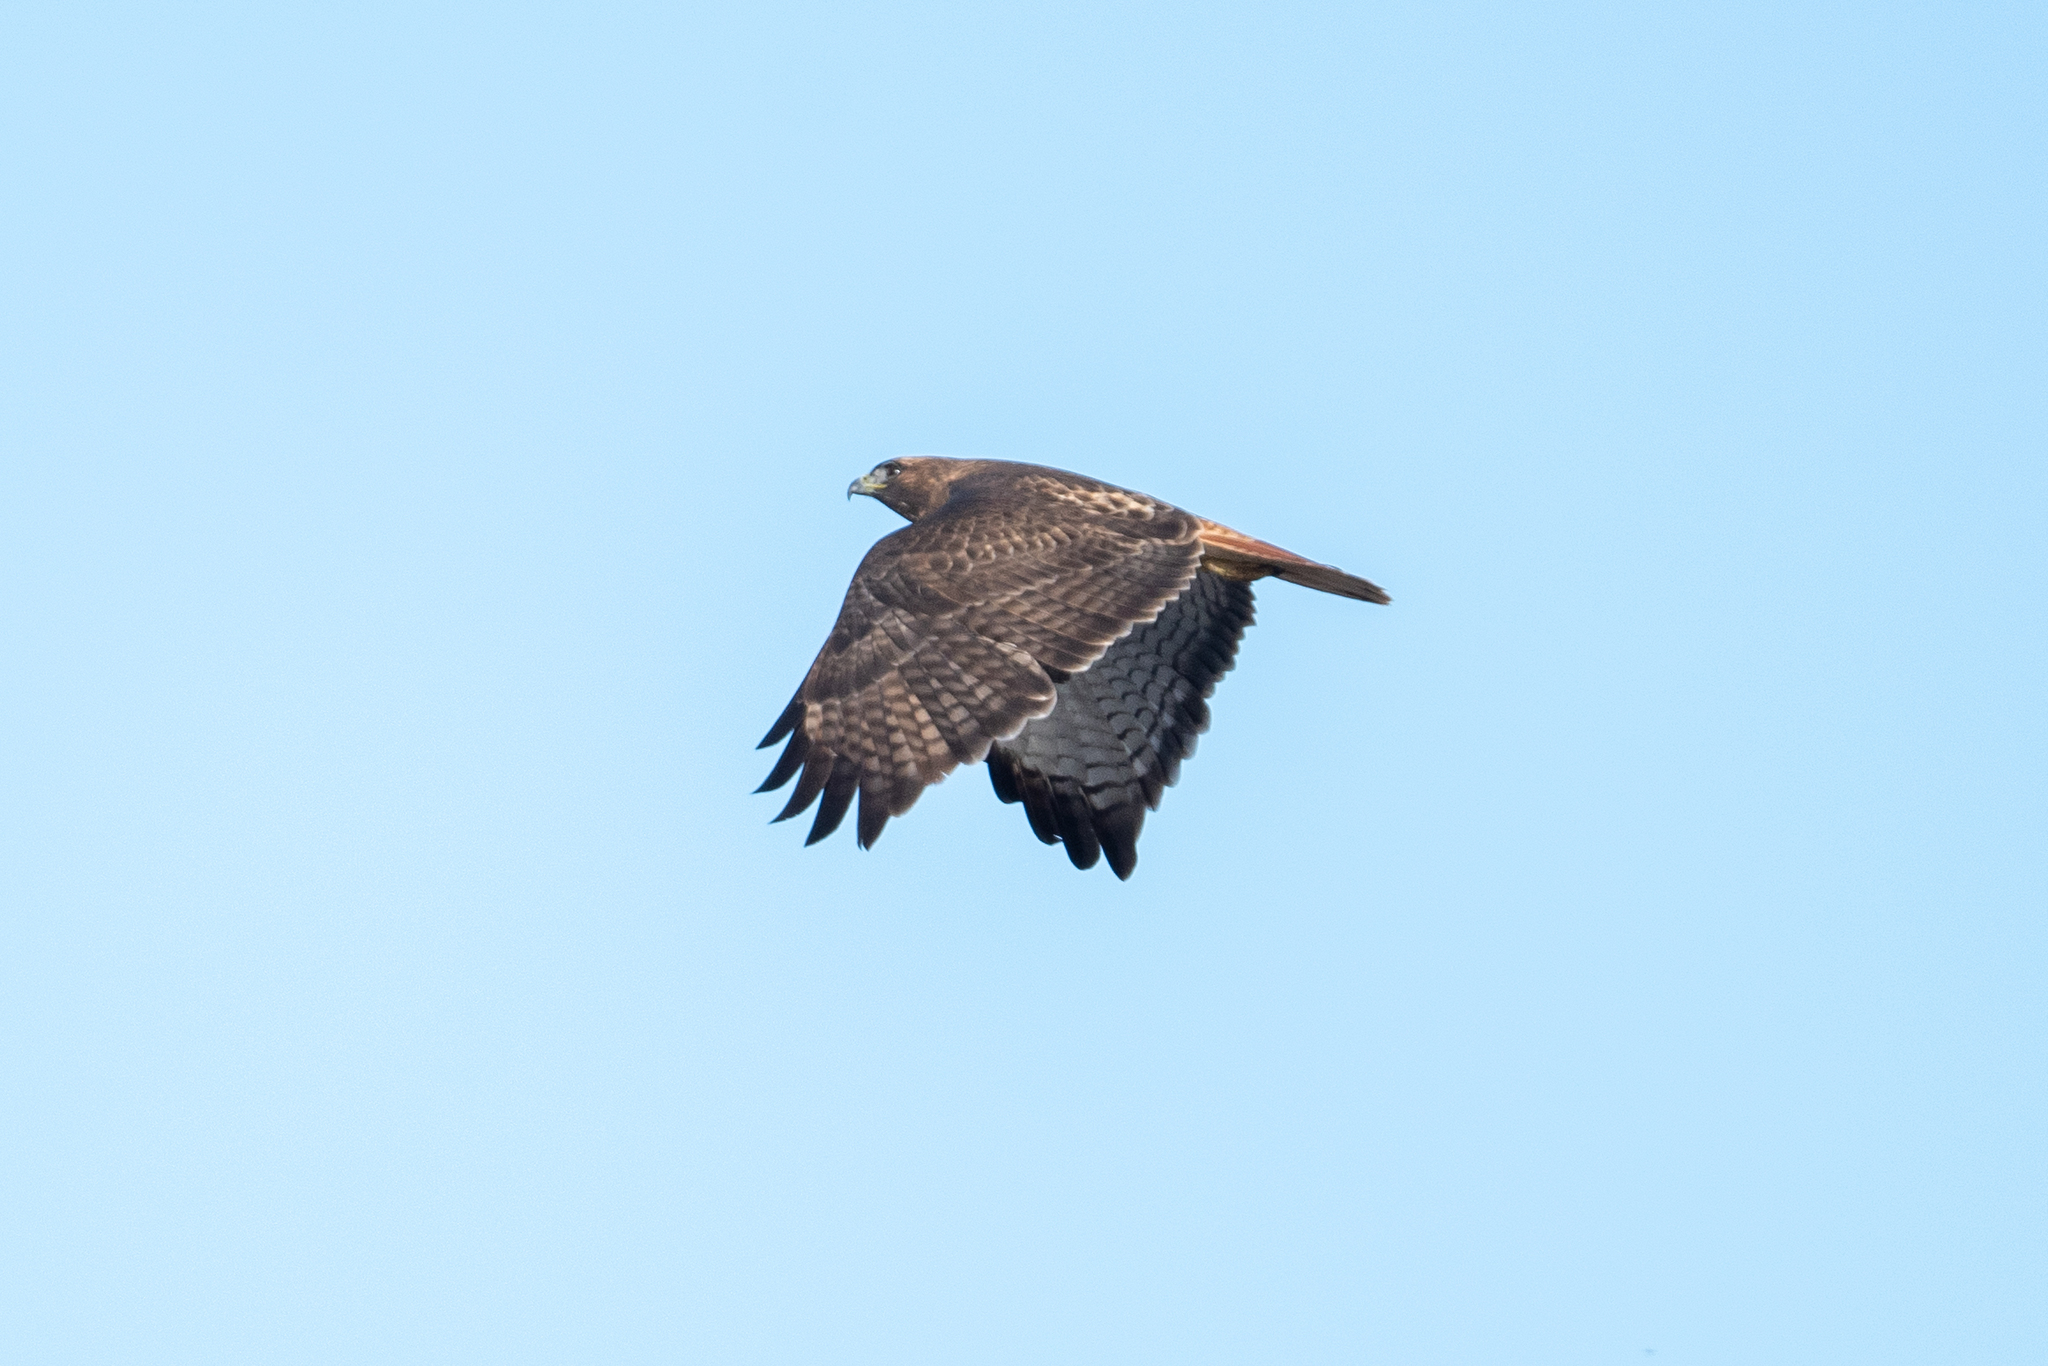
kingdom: Animalia
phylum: Chordata
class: Aves
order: Accipitriformes
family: Accipitridae
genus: Buteo
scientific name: Buteo jamaicensis
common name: Red-tailed hawk
